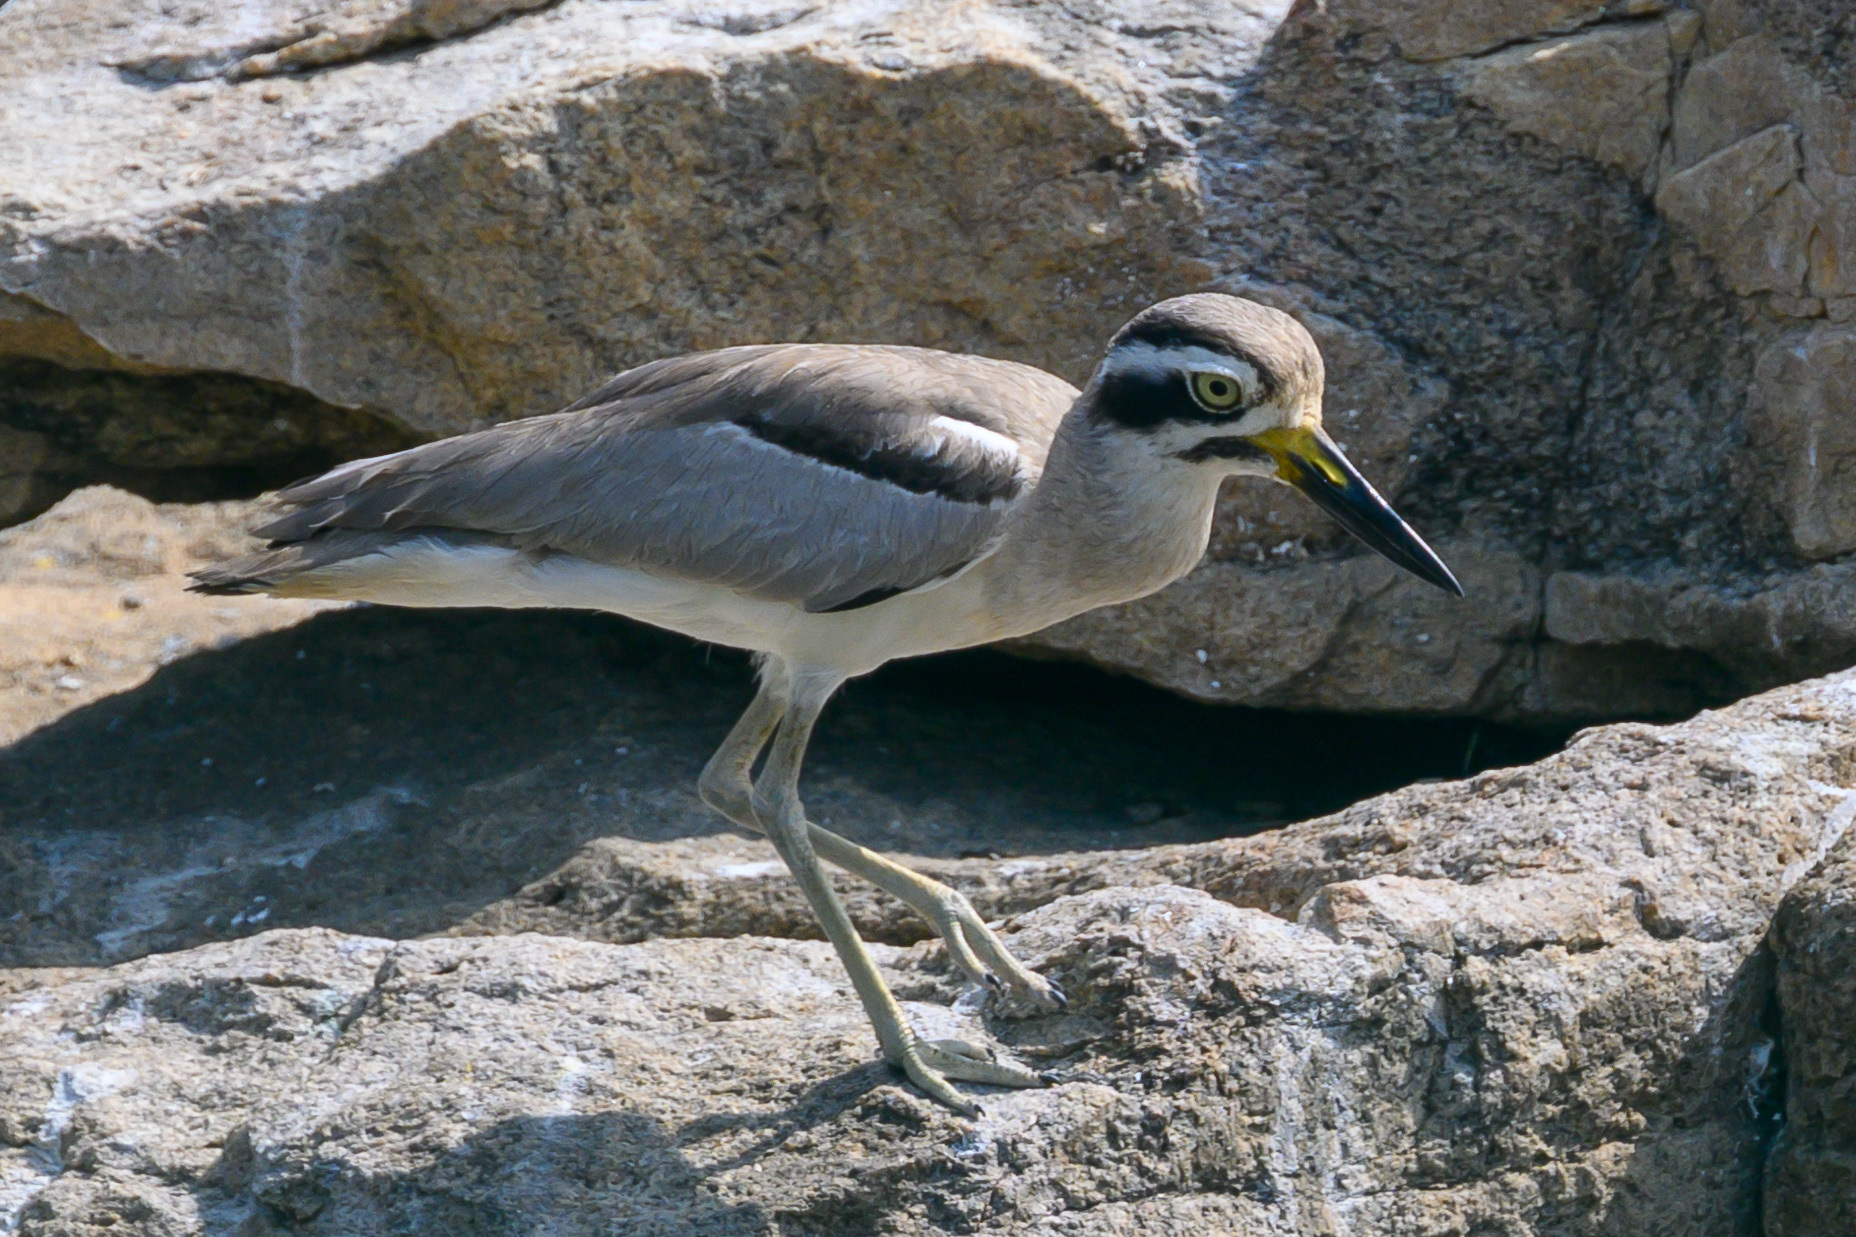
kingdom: Animalia
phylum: Chordata
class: Aves
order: Charadriiformes
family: Burhinidae
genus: Esacus
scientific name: Esacus recurvirostris
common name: Great stone-curlew
